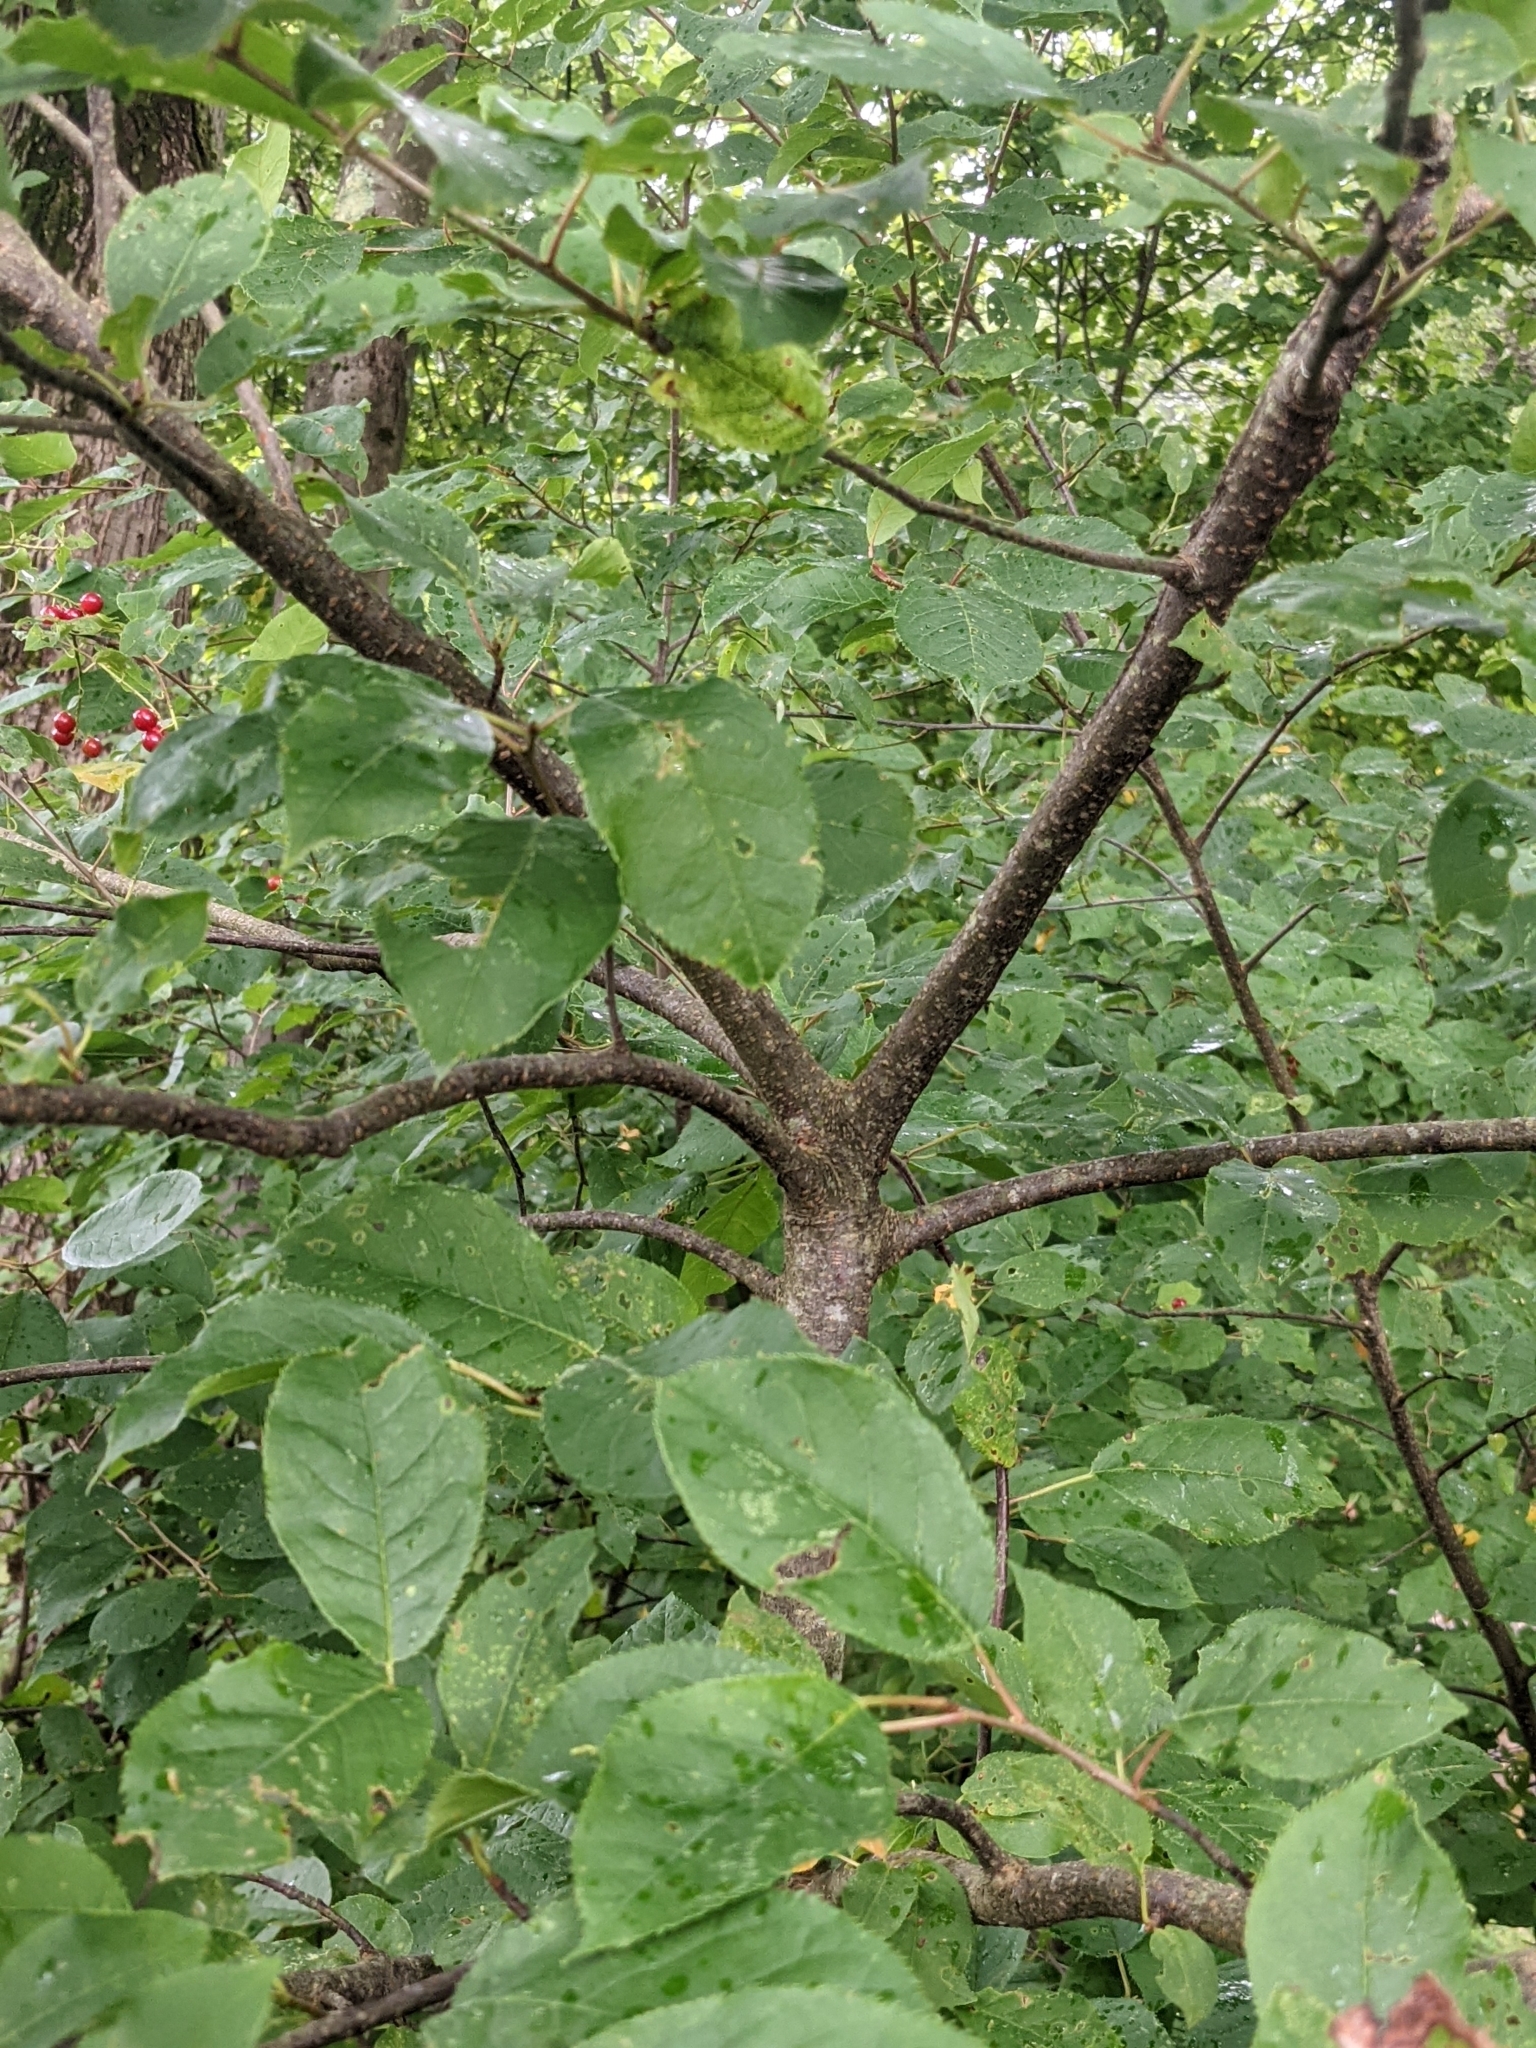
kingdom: Plantae
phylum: Tracheophyta
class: Magnoliopsida
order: Rosales
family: Rosaceae
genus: Prunus
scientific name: Prunus virginiana
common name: Chokecherry
